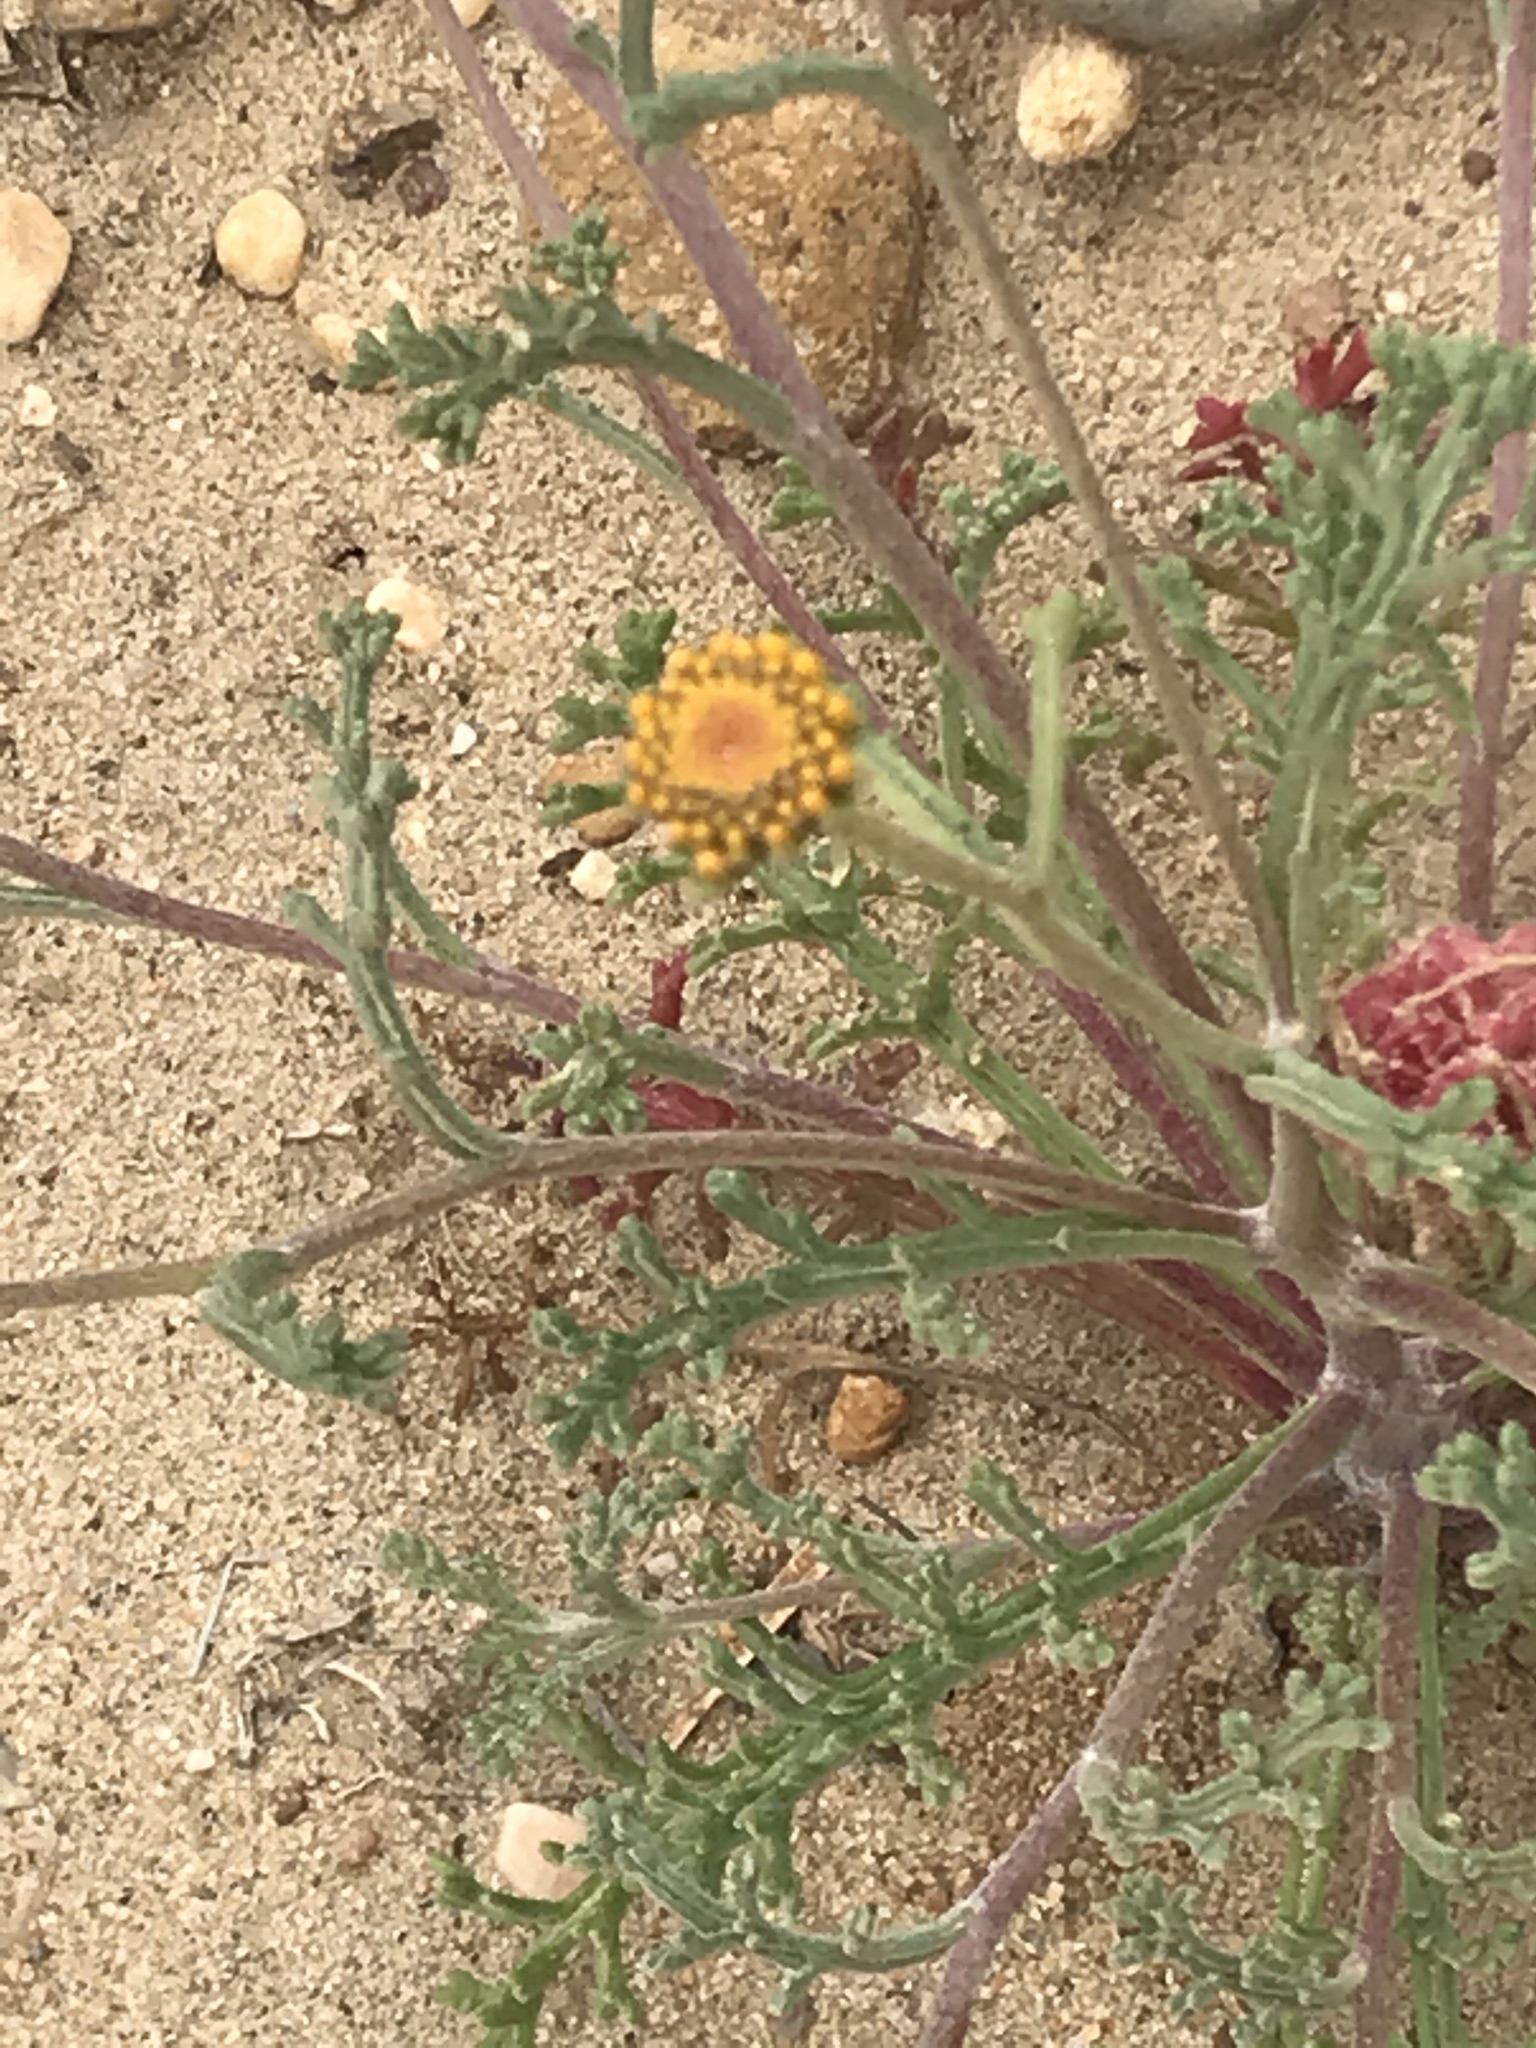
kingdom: Plantae
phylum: Tracheophyta
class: Magnoliopsida
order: Asterales
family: Asteraceae
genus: Chaenactis
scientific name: Chaenactis glabriuscula
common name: Yellow pincushion
